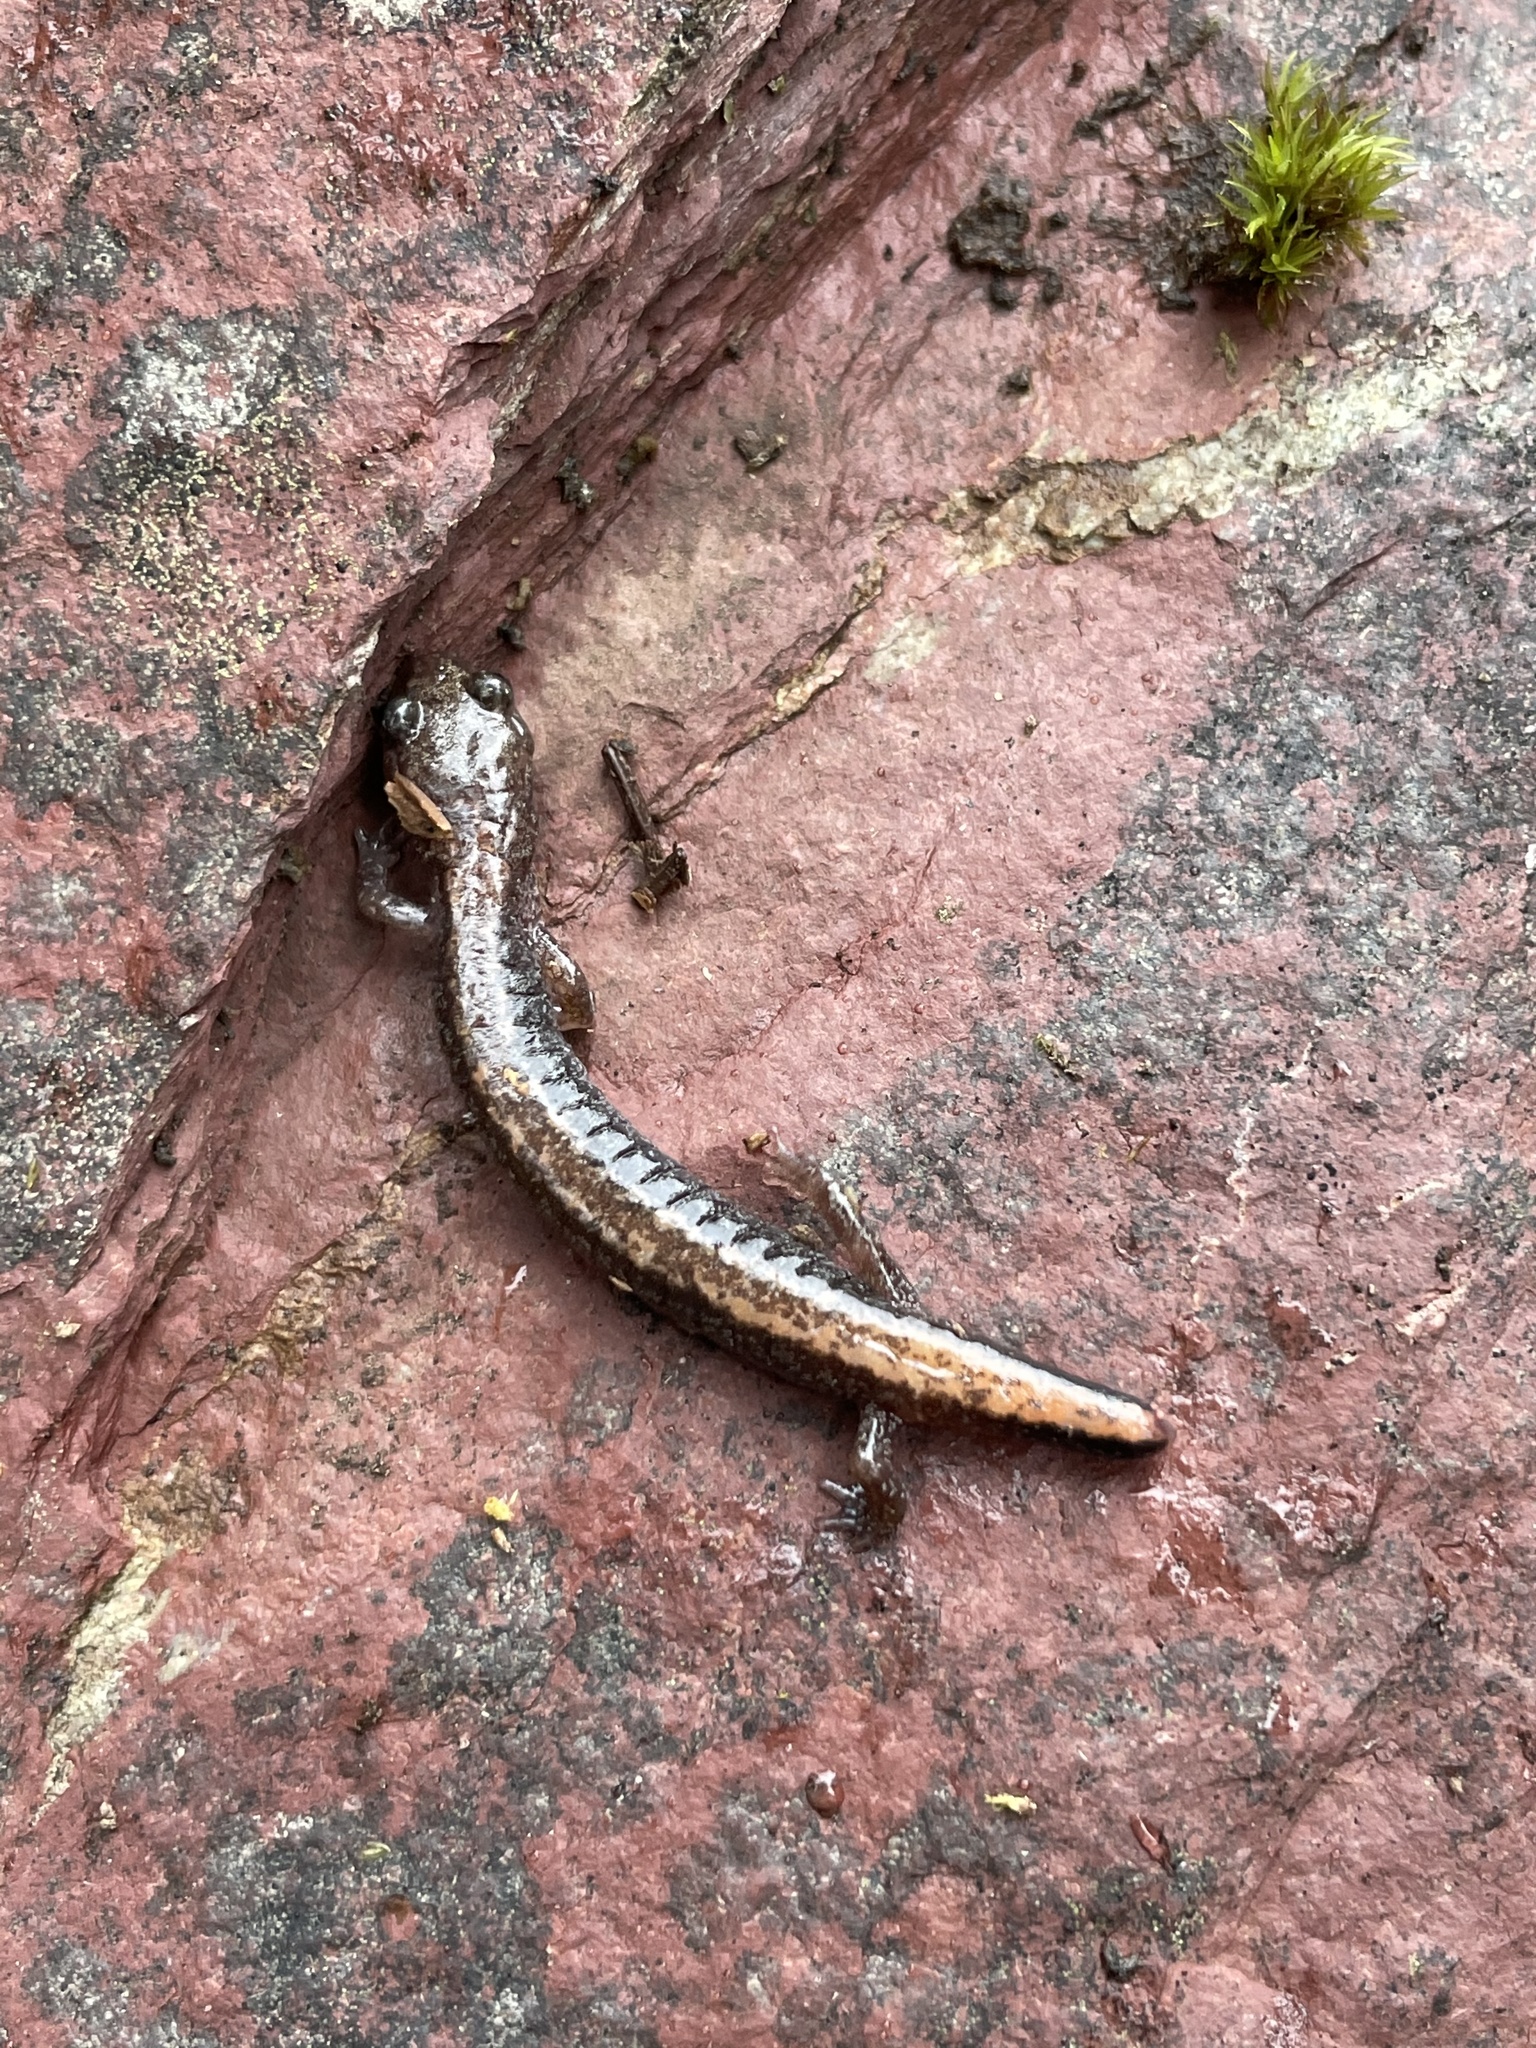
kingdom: Animalia
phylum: Chordata
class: Amphibia
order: Caudata
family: Plethodontidae
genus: Plethodon
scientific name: Plethodon cinereus
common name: Redback salamander
